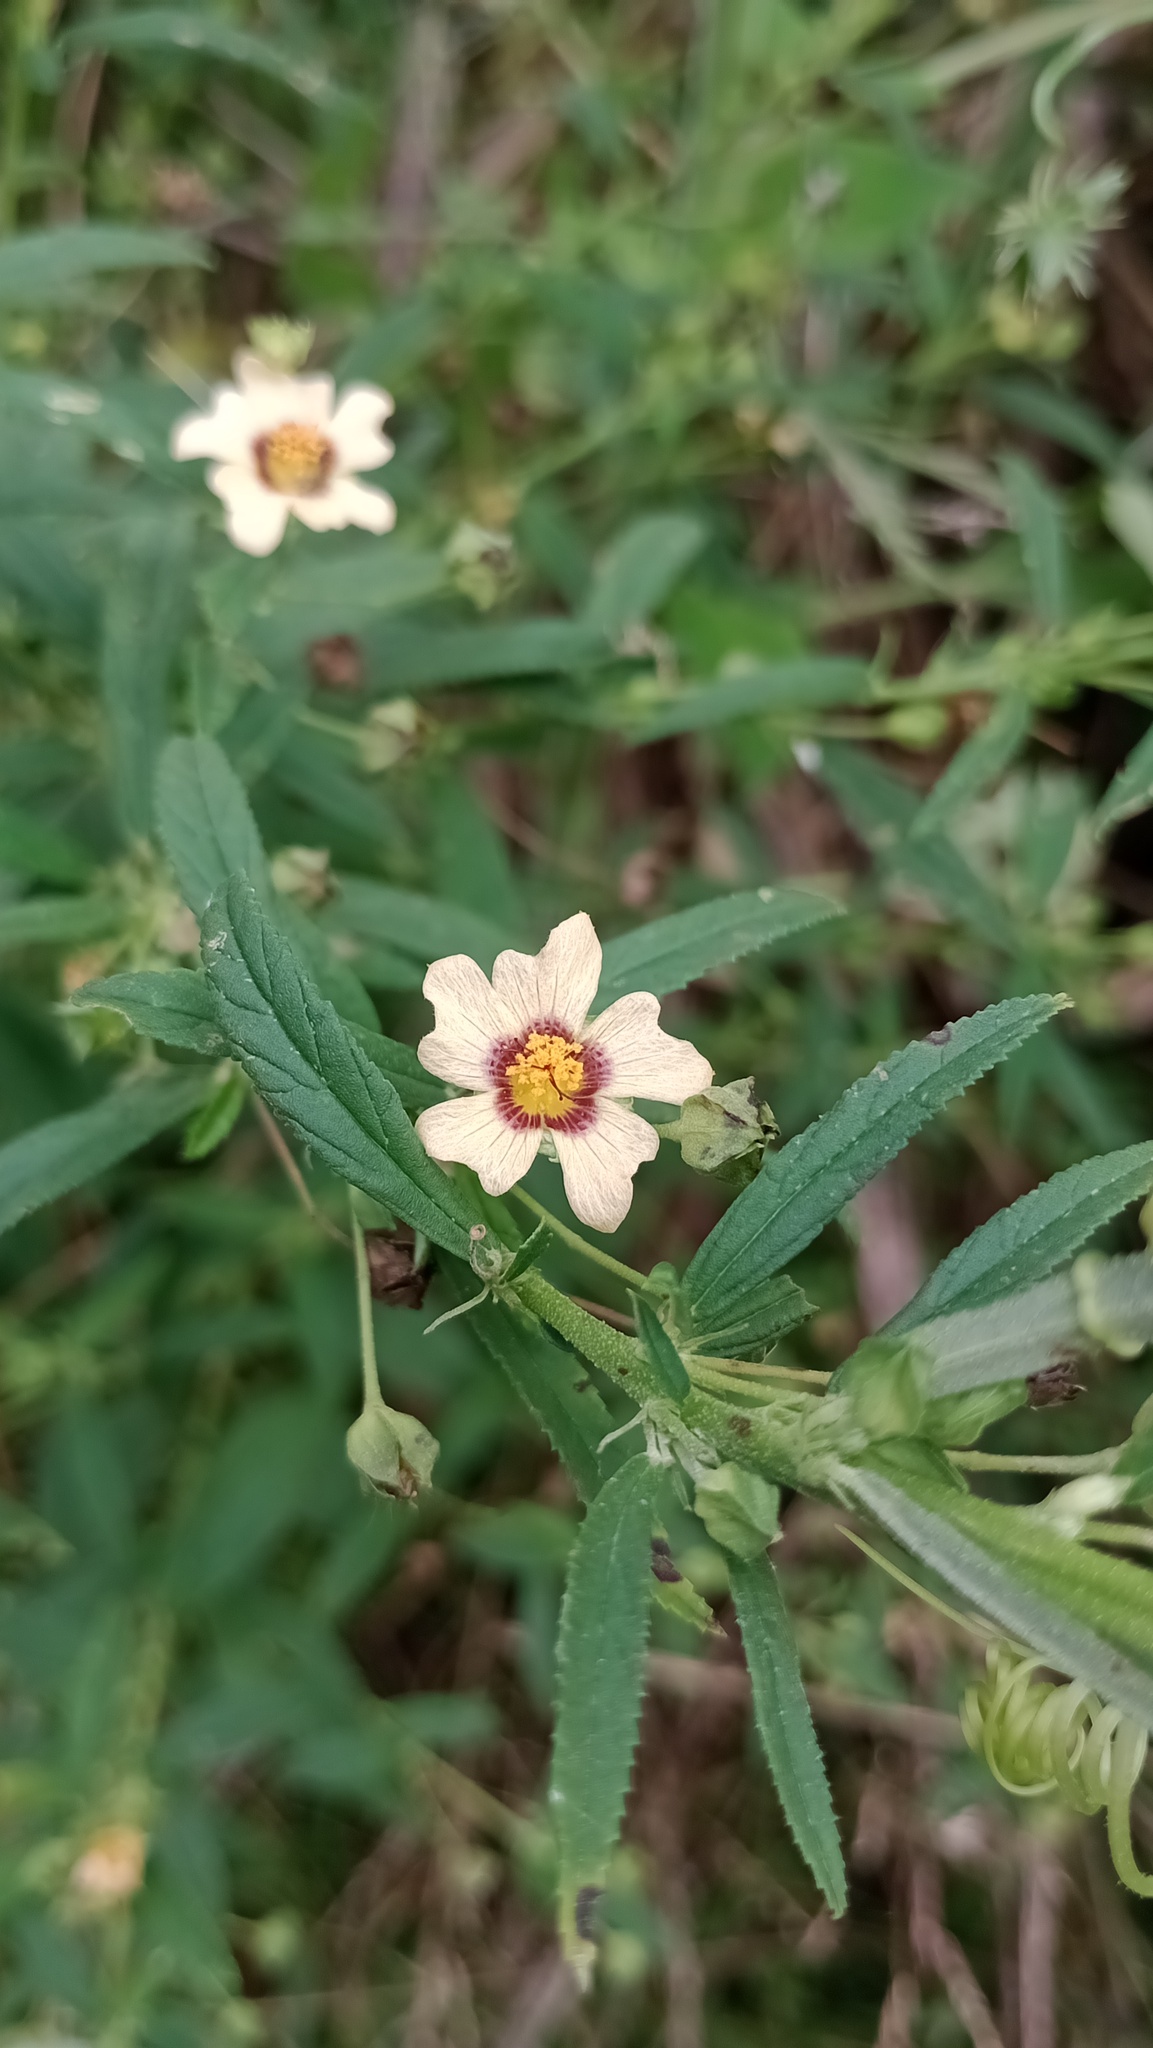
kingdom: Plantae
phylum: Tracheophyta
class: Magnoliopsida
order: Malvales
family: Malvaceae
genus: Sida
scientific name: Sida poeppigiana
